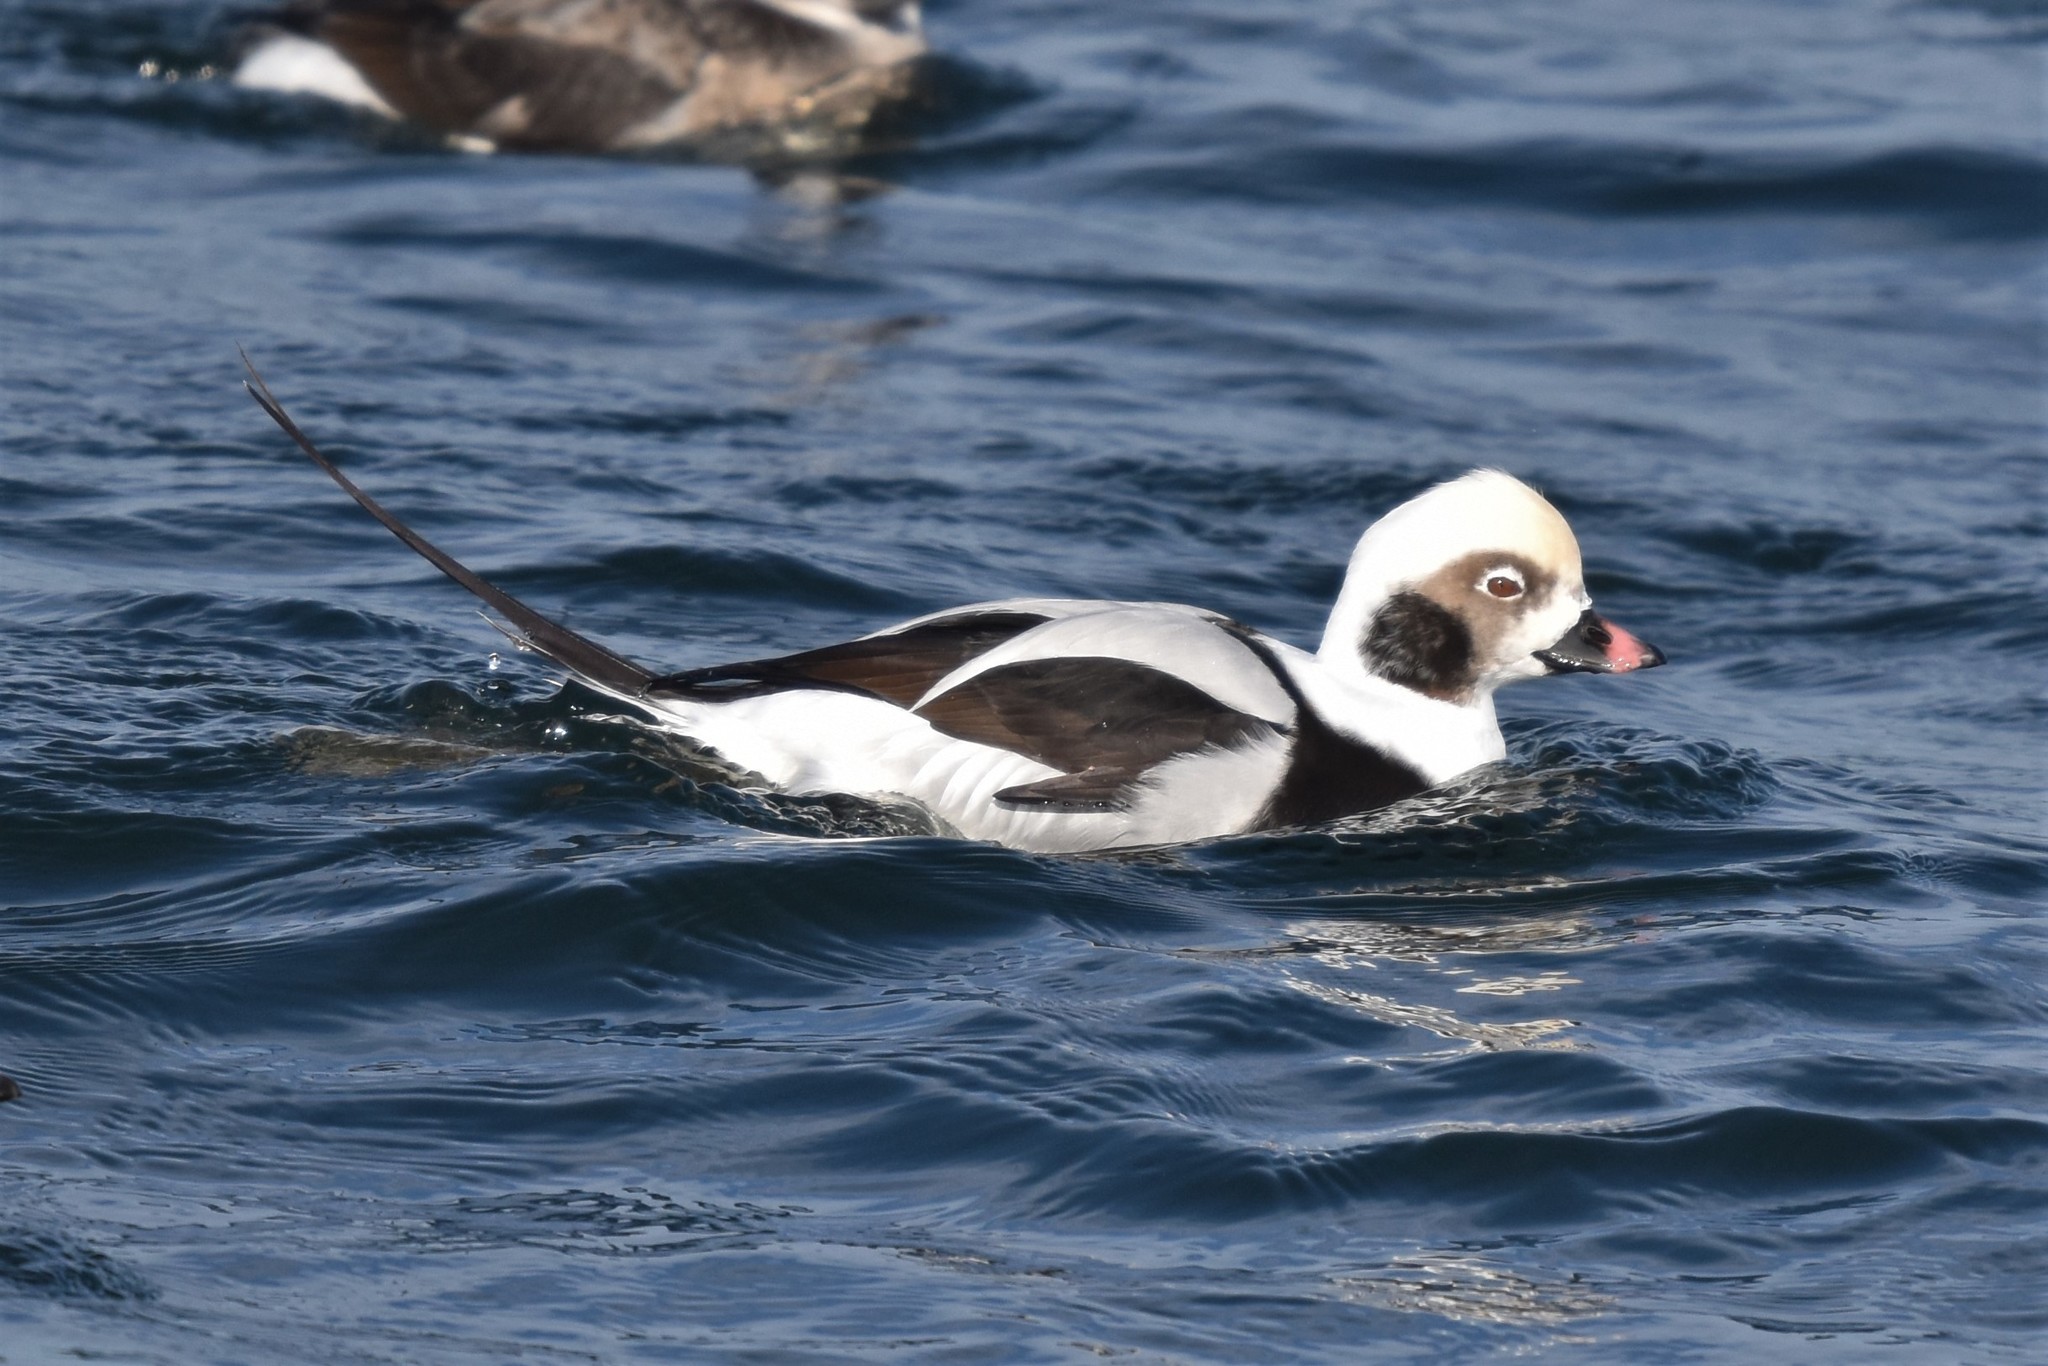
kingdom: Animalia
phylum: Chordata
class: Aves
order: Anseriformes
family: Anatidae
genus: Clangula
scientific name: Clangula hyemalis
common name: Long-tailed duck
